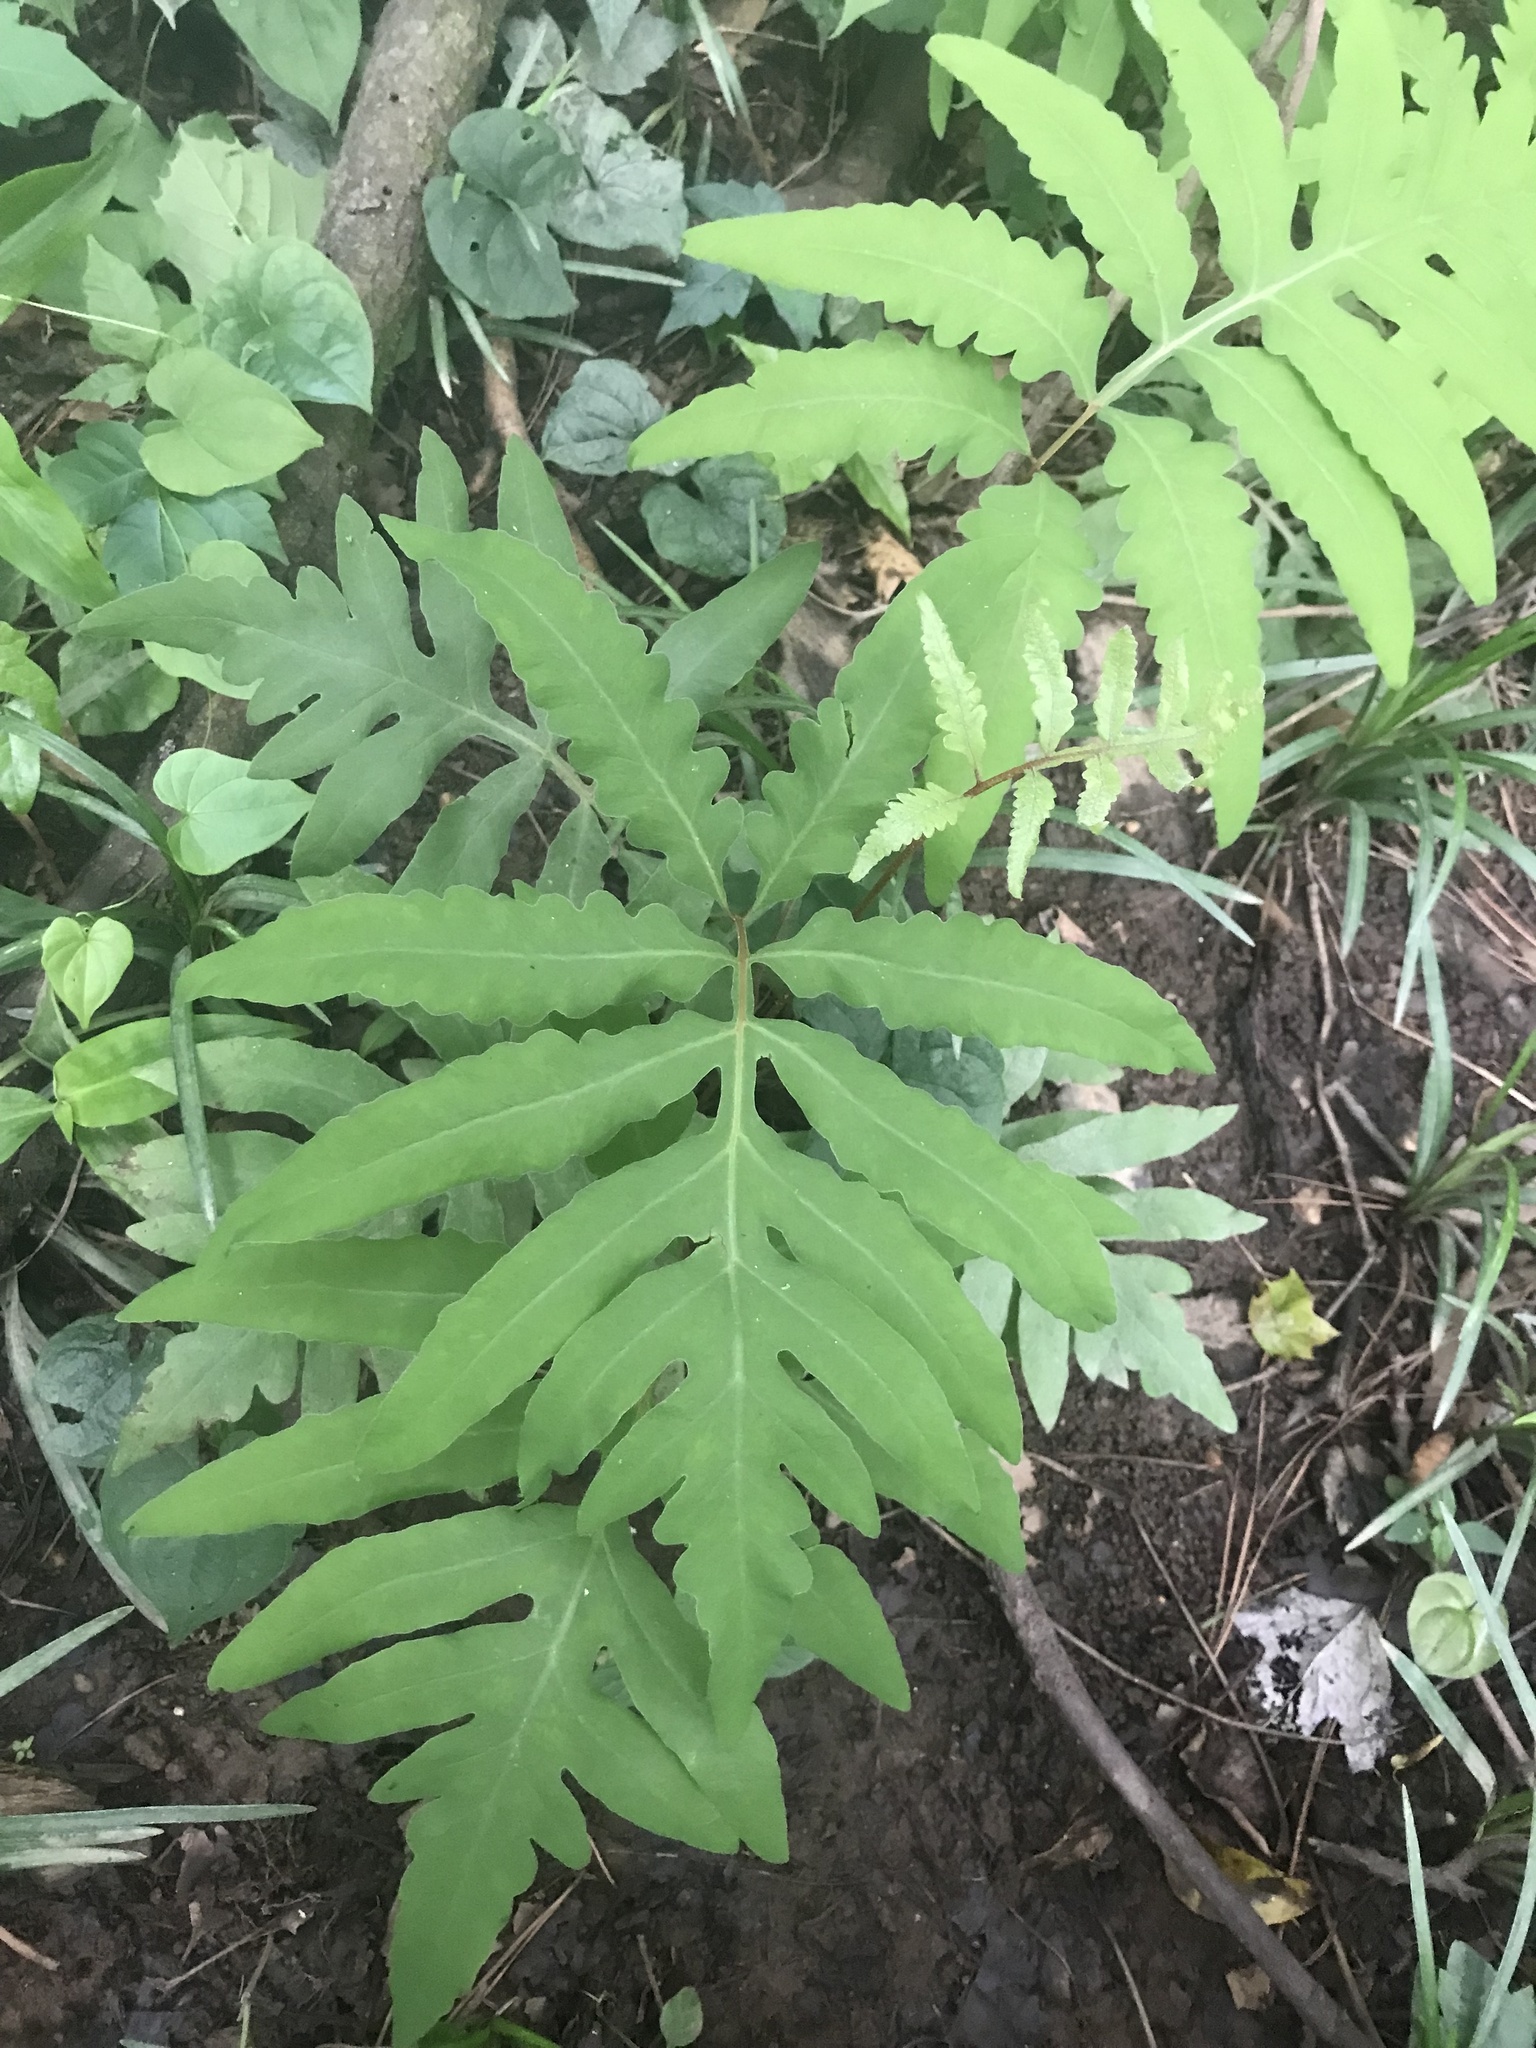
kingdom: Plantae
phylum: Tracheophyta
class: Polypodiopsida
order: Polypodiales
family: Onocleaceae
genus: Onoclea
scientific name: Onoclea sensibilis
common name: Sensitive fern
